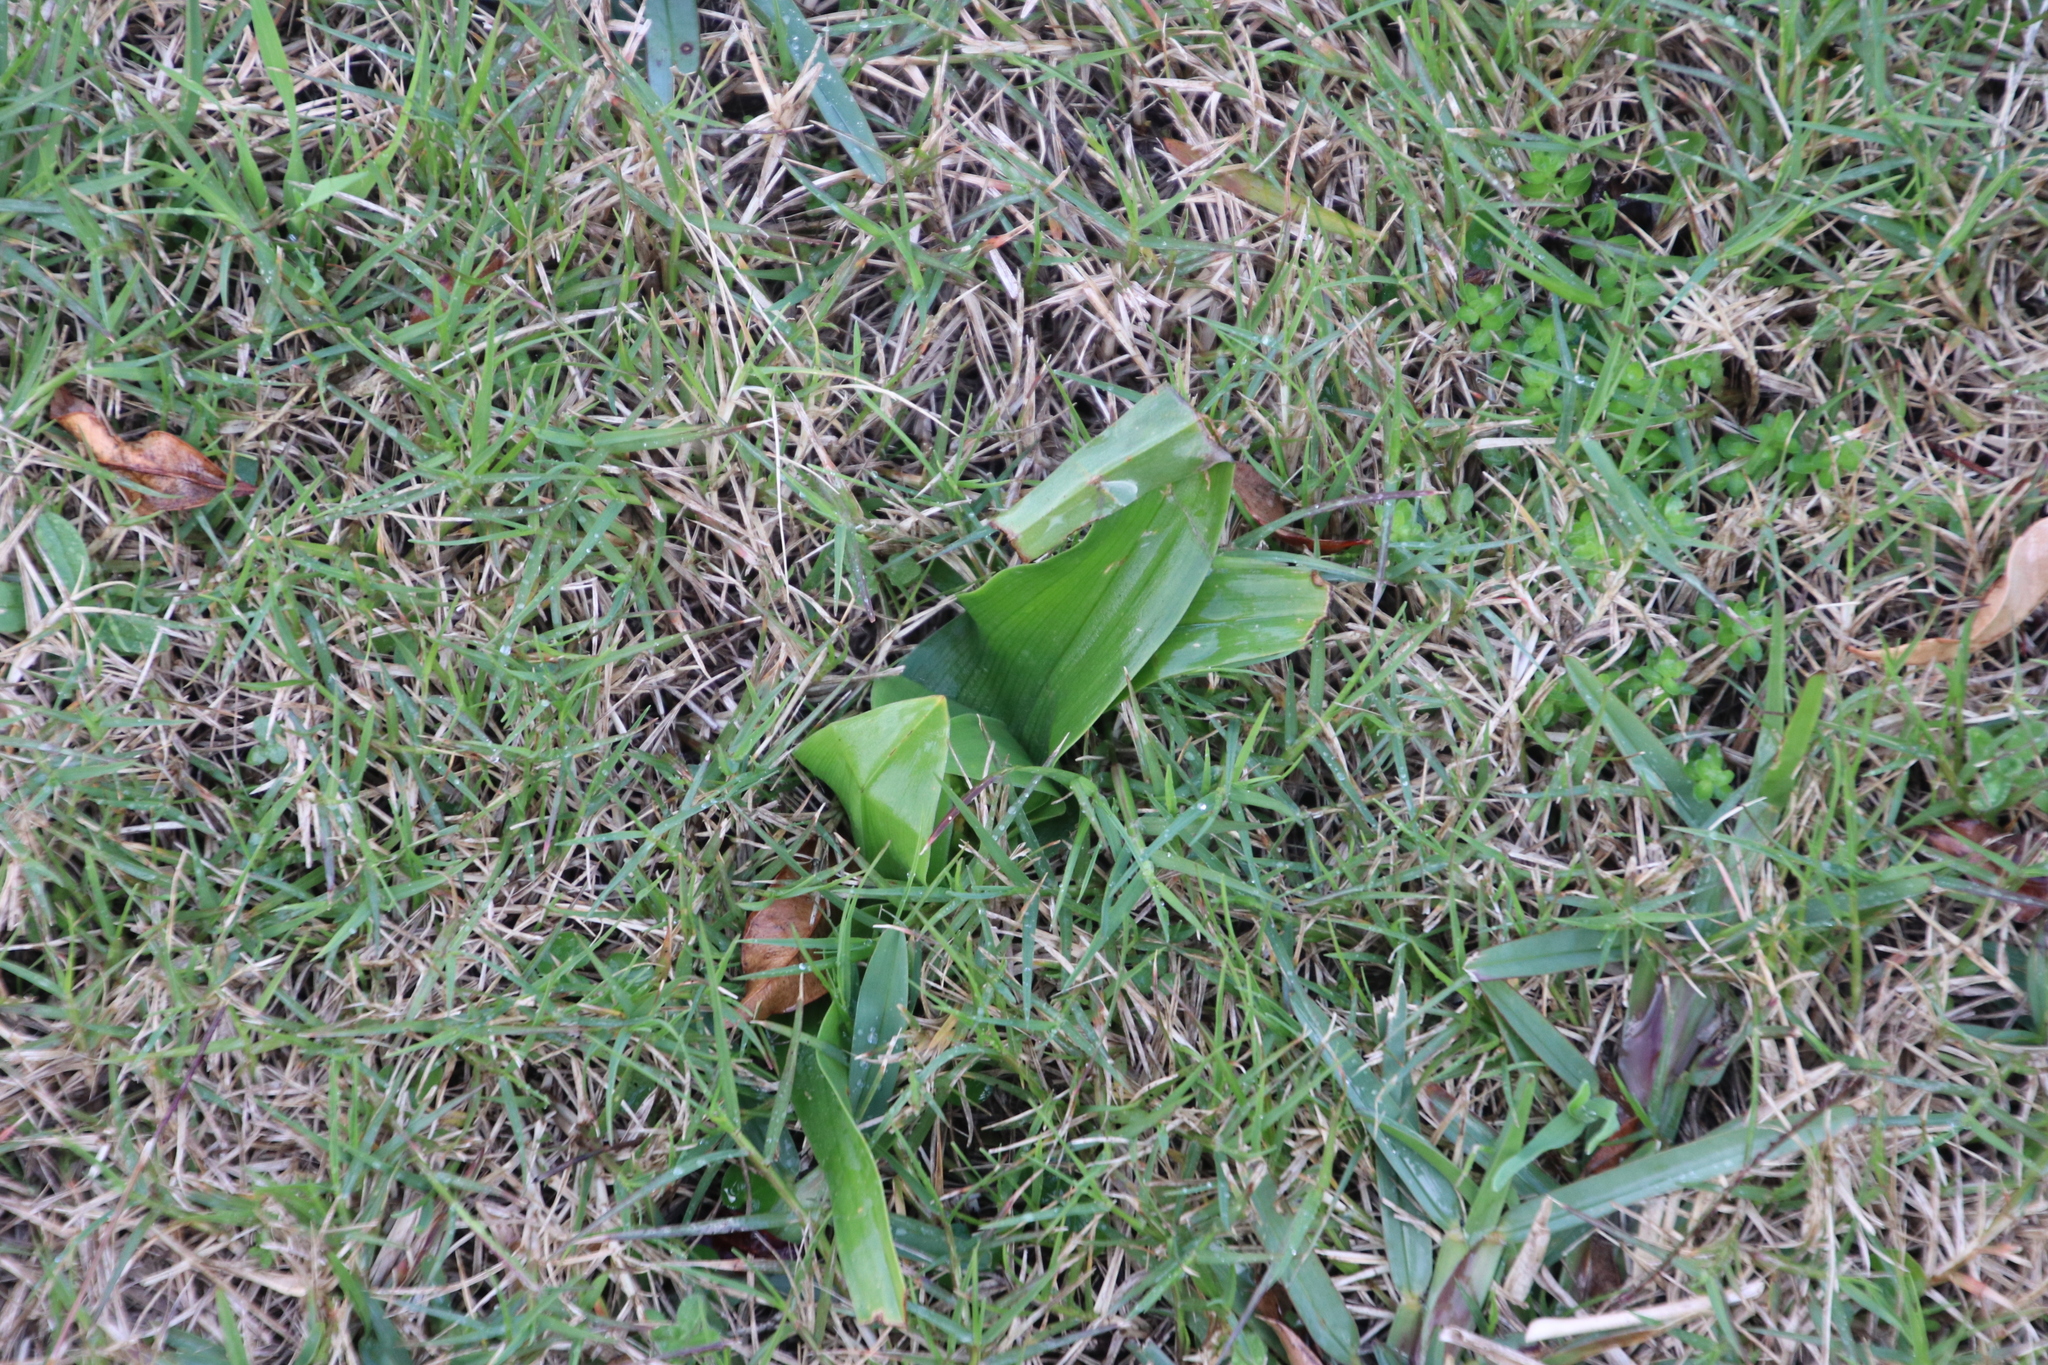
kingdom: Plantae
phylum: Tracheophyta
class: Liliopsida
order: Liliales
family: Colchicaceae
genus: Colchicum
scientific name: Colchicum eucomoides
